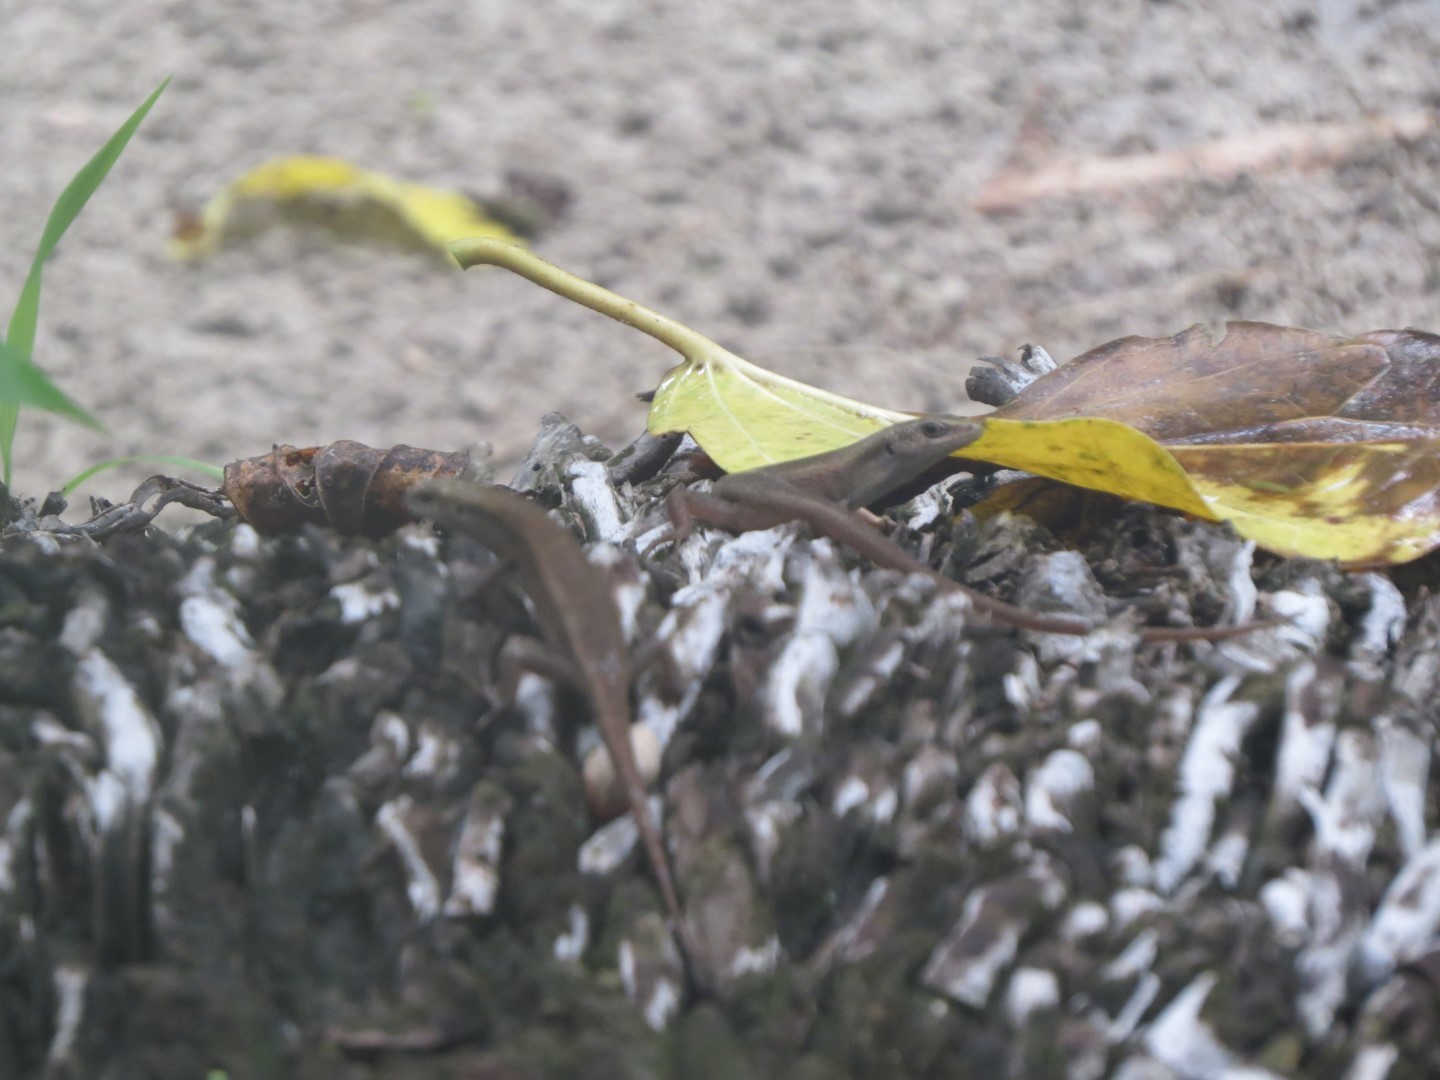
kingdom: Animalia
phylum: Chordata
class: Squamata
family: Scincidae
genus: Carlia
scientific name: Carlia fusca
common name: Brown four-fingered skink
